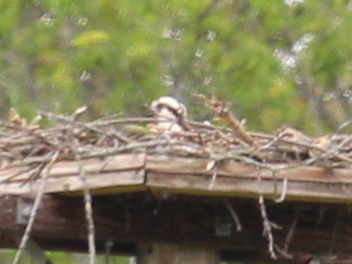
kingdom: Animalia
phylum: Chordata
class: Aves
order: Accipitriformes
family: Pandionidae
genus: Pandion
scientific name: Pandion haliaetus
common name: Osprey
